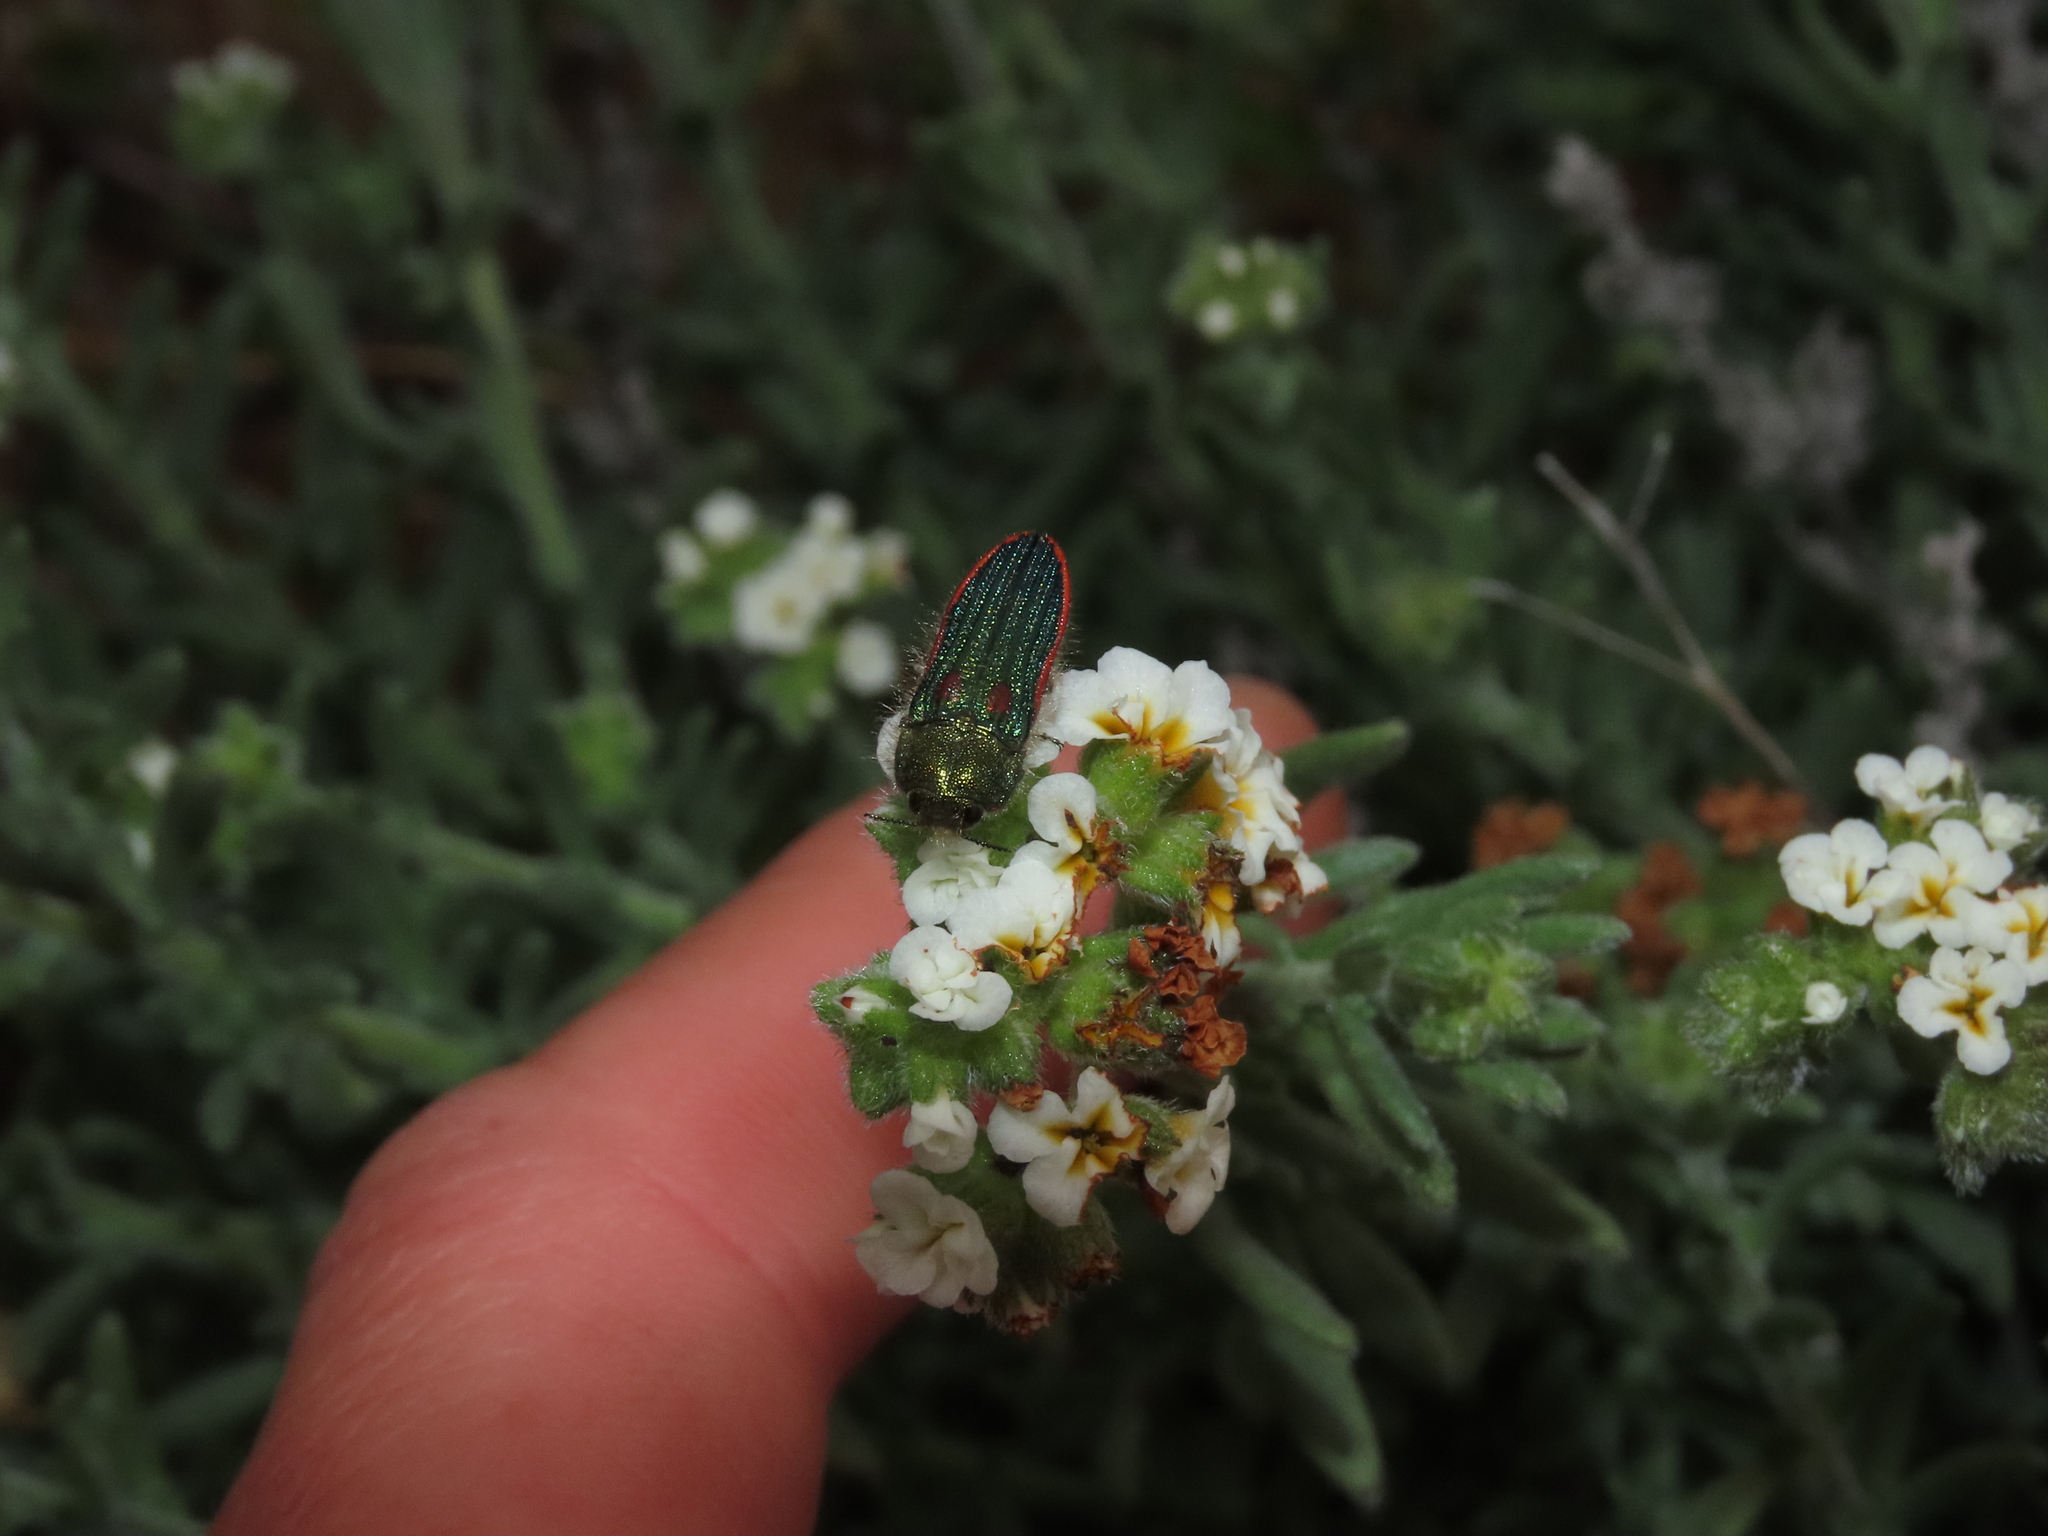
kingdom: Animalia
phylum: Arthropoda
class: Insecta
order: Coleoptera
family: Buprestidae
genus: Lasionota
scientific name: Lasionota rouletii
